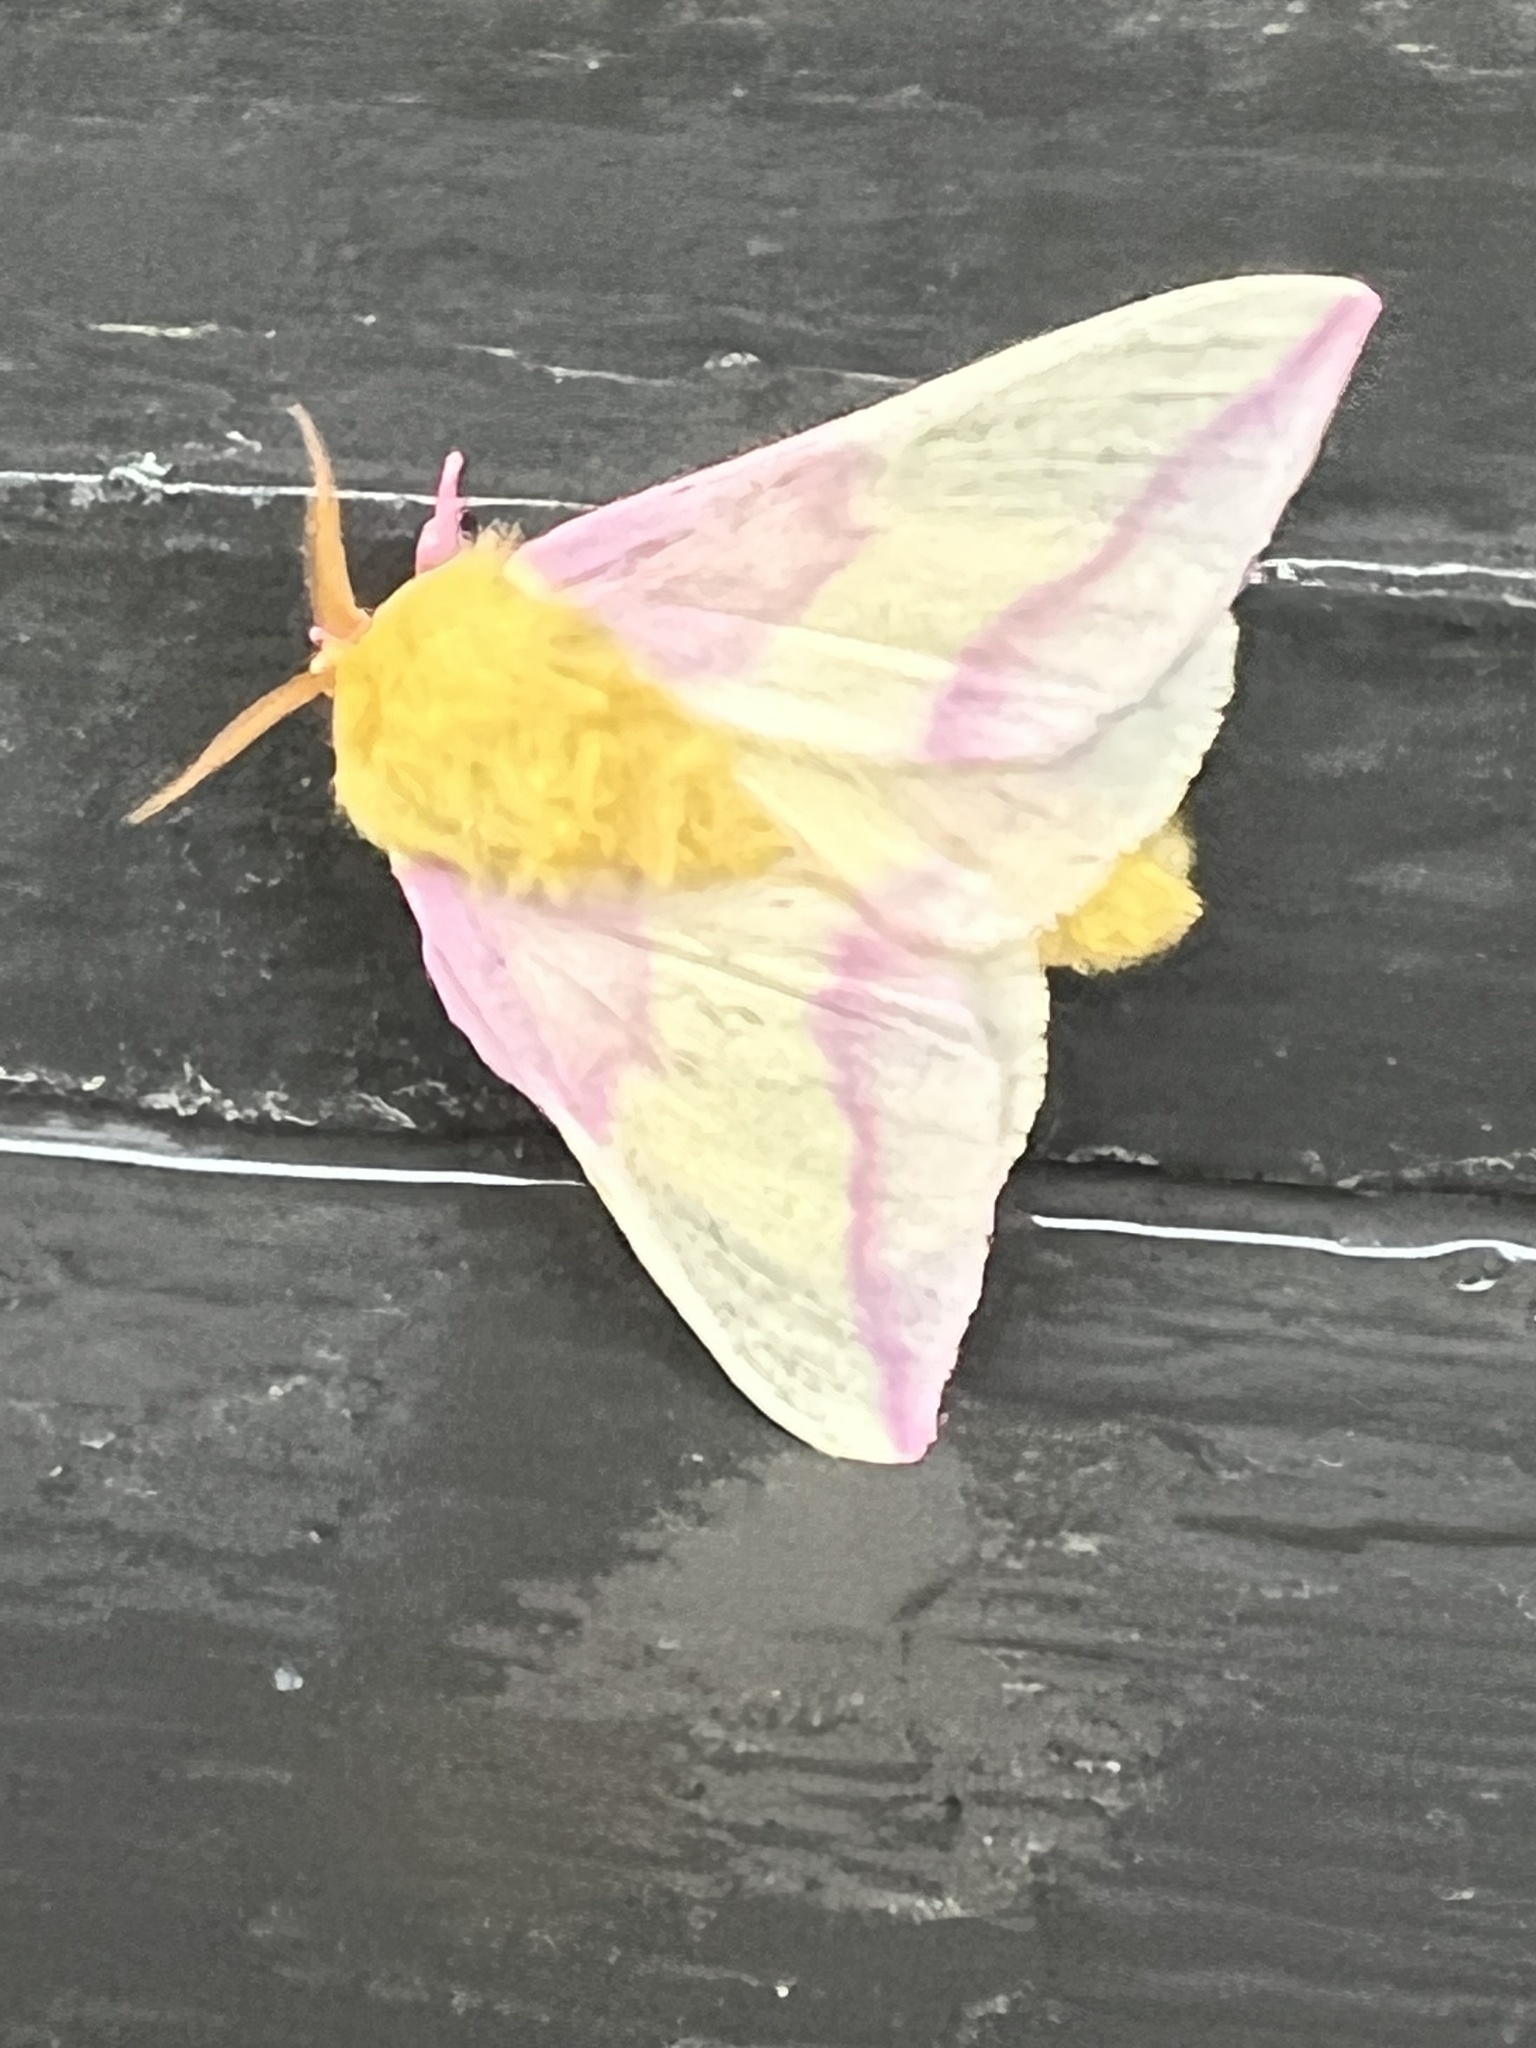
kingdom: Animalia
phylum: Arthropoda
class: Insecta
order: Lepidoptera
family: Saturniidae
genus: Dryocampa
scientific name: Dryocampa rubicunda
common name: Rosy maple moth
